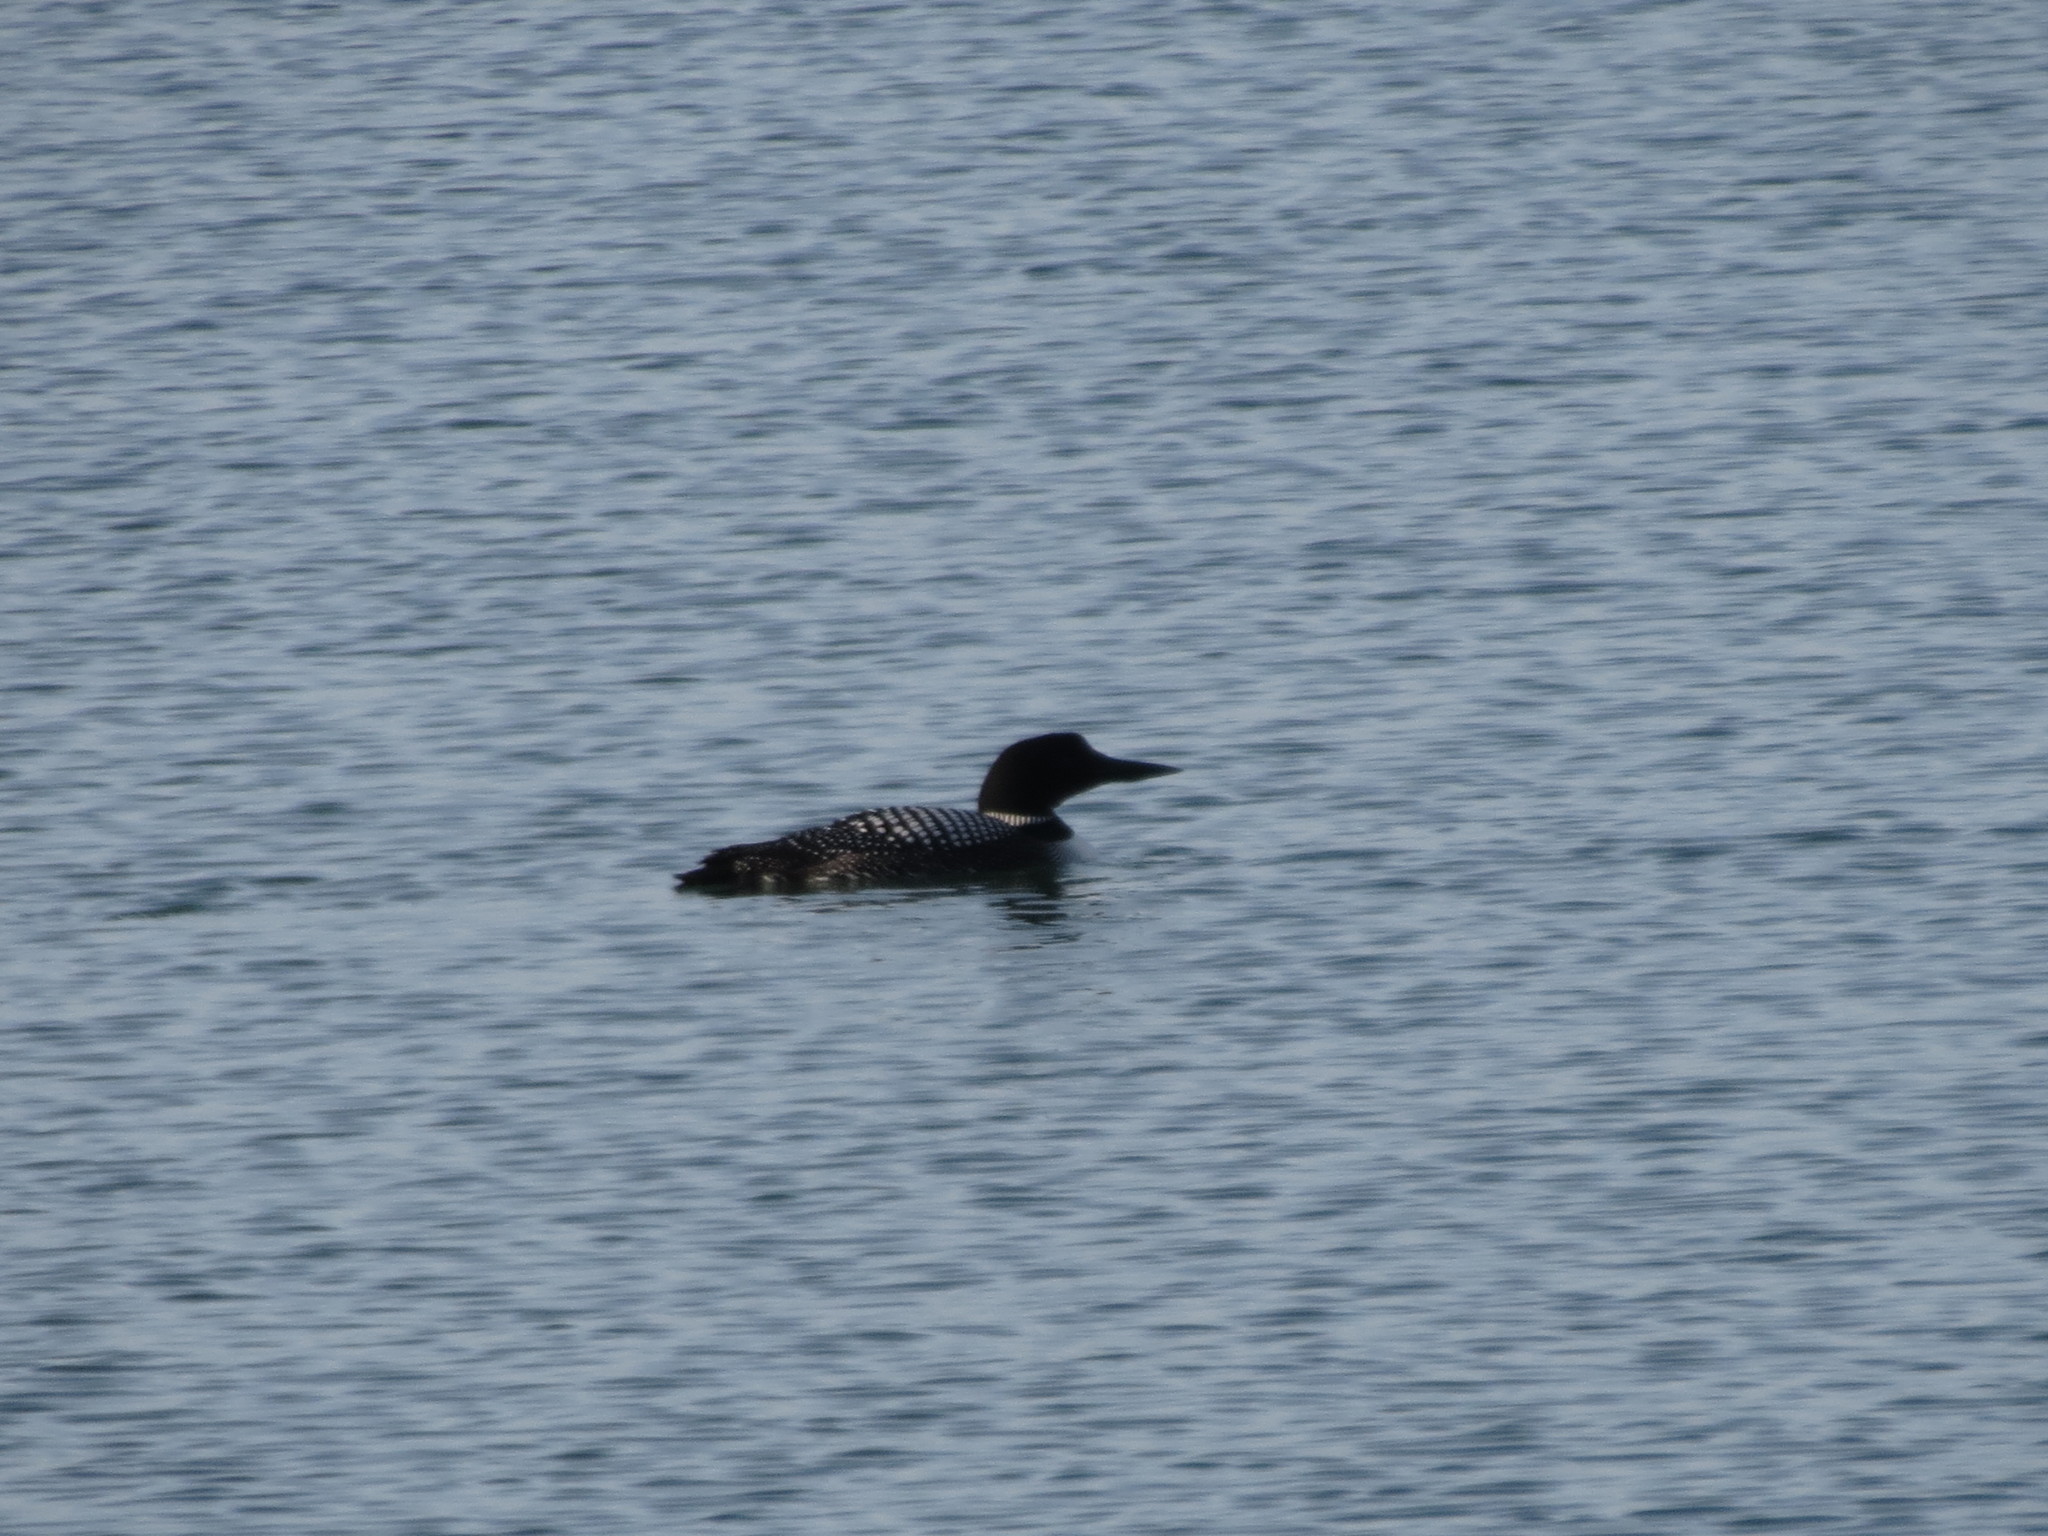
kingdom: Animalia
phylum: Chordata
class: Aves
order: Gaviiformes
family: Gaviidae
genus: Gavia
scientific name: Gavia immer
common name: Common loon
